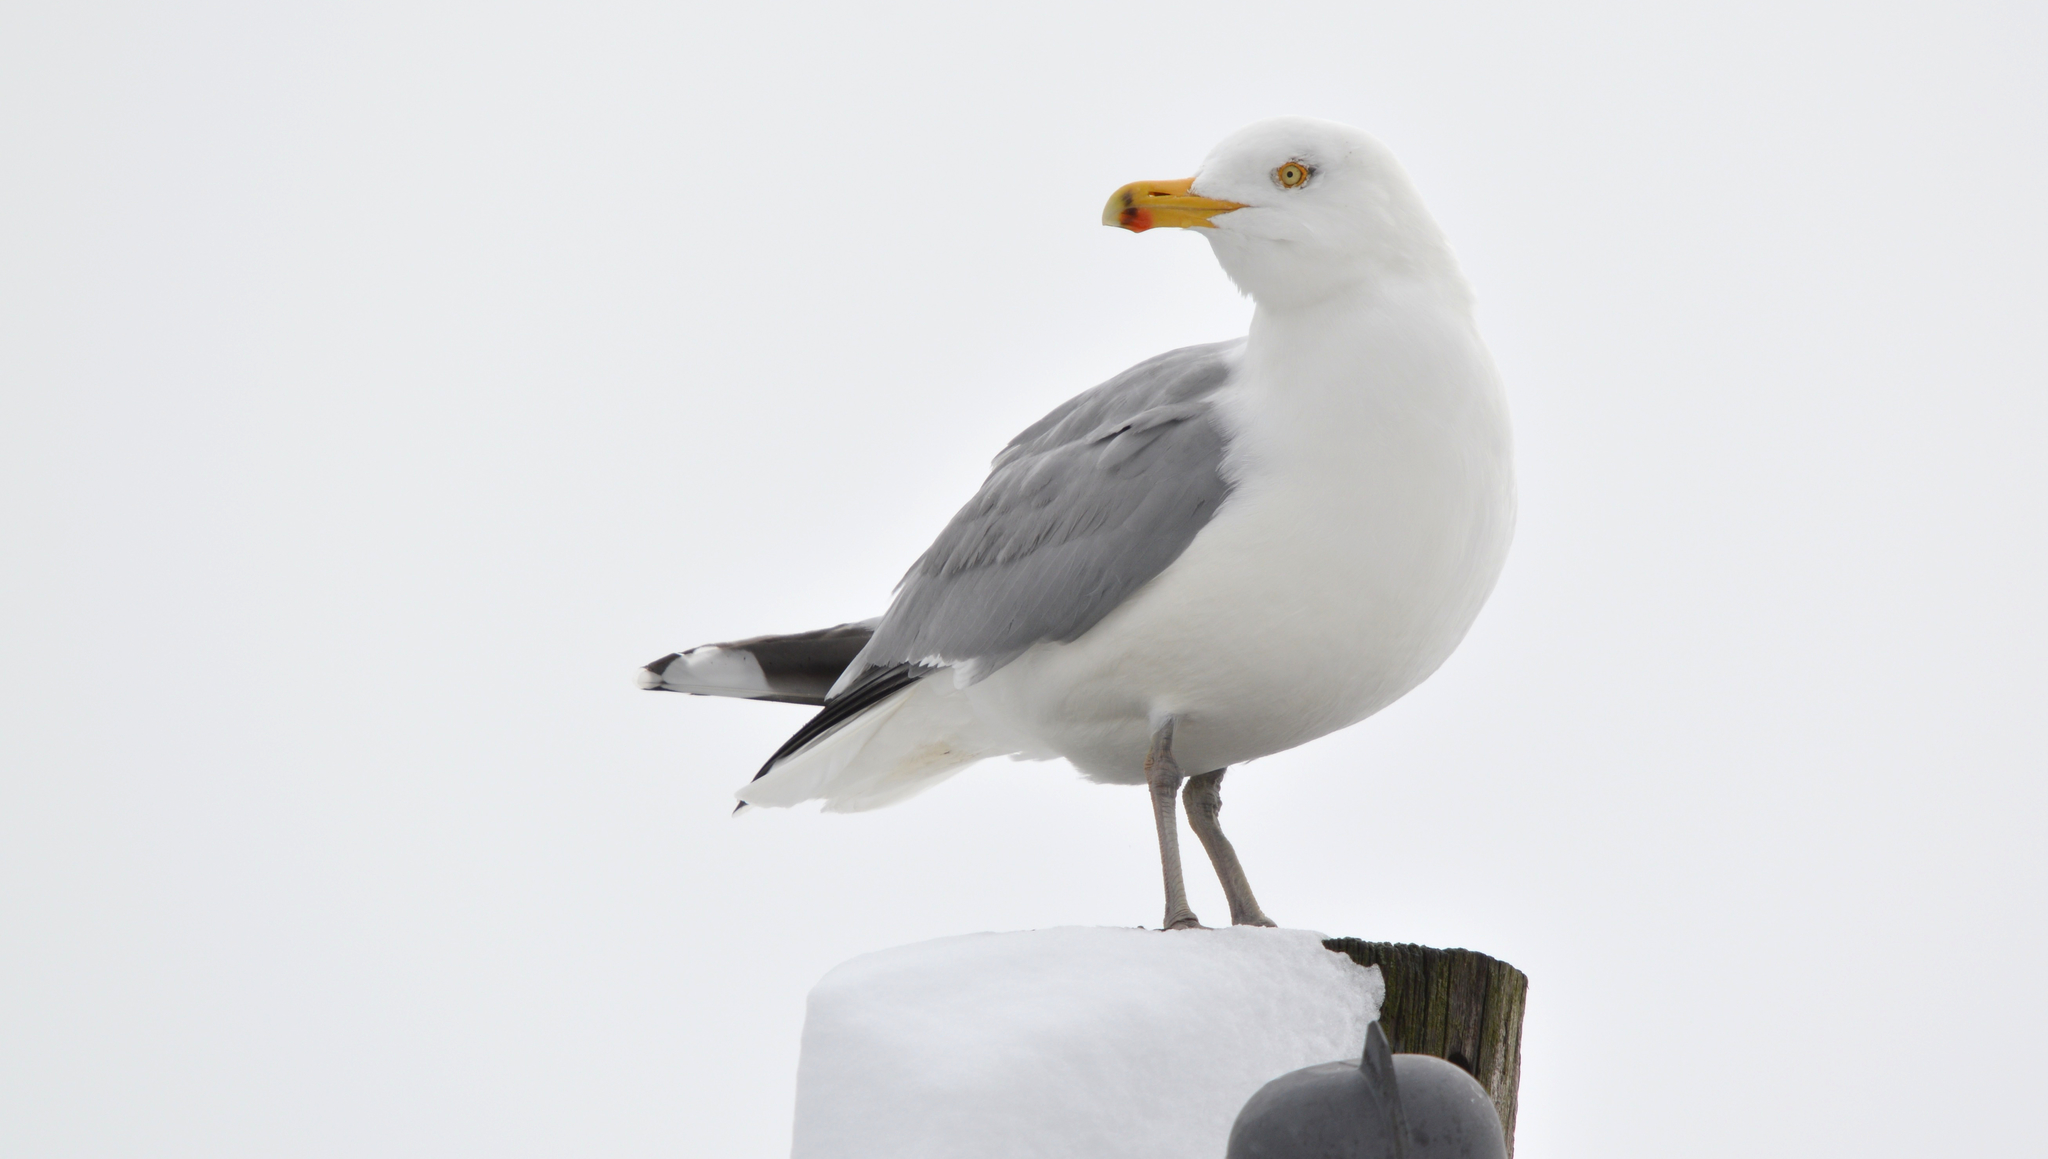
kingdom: Animalia
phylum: Chordata
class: Aves
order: Charadriiformes
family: Laridae
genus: Larus
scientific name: Larus argentatus
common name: Herring gull
